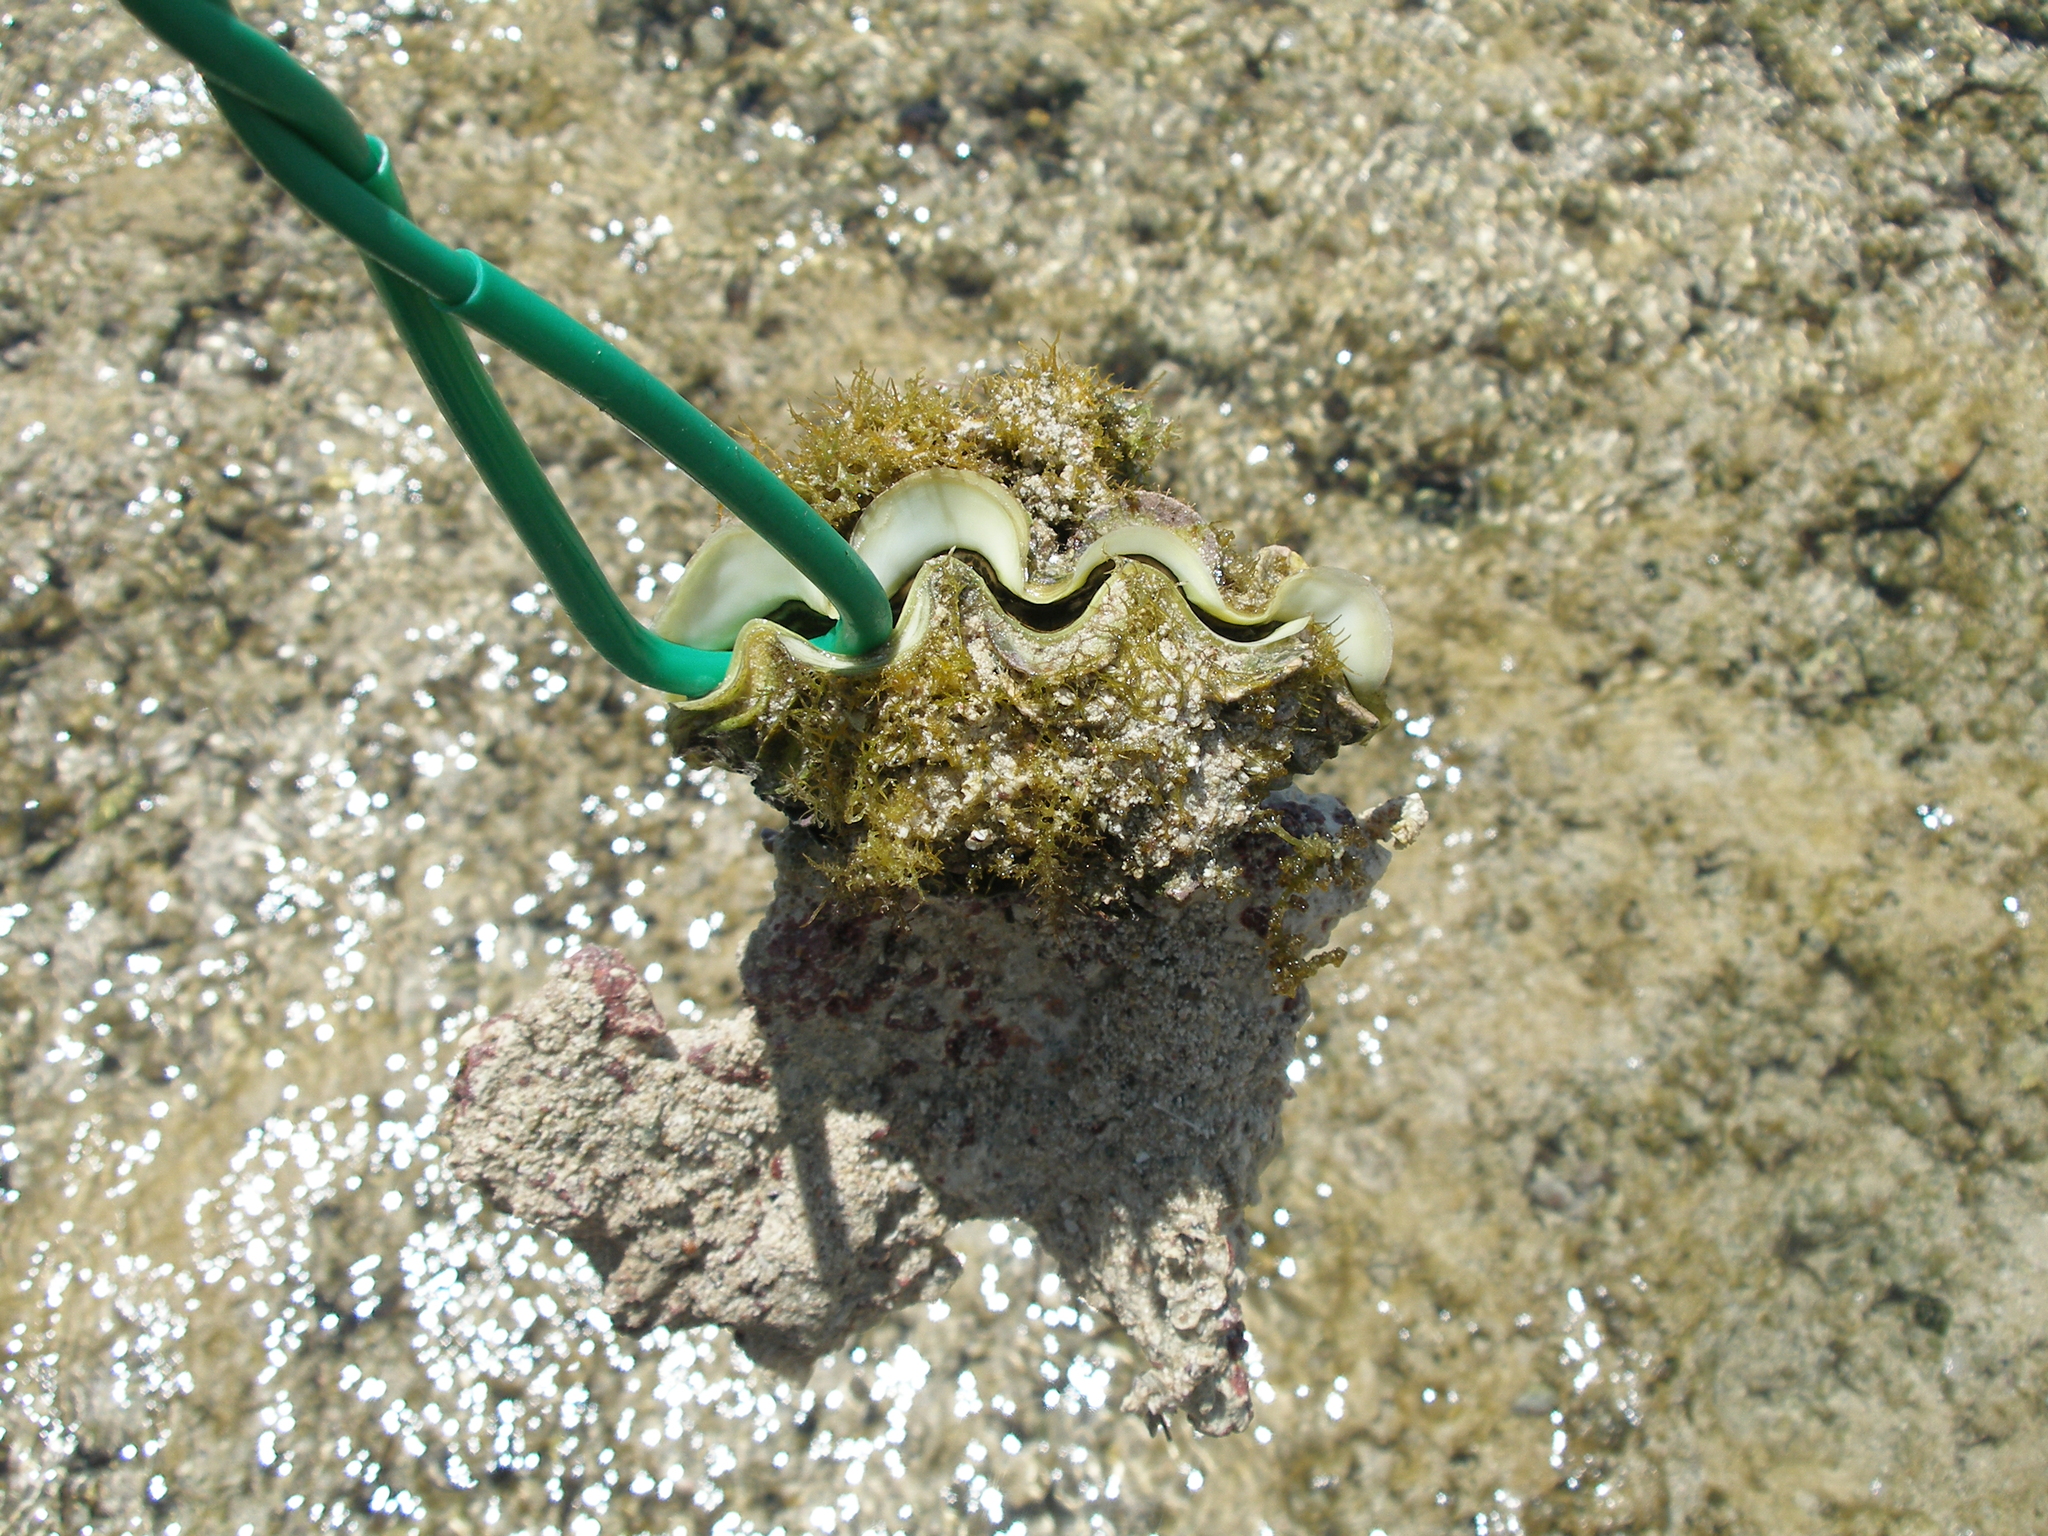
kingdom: Animalia
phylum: Mollusca
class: Bivalvia
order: Cardiida
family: Cardiidae
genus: Tridacna
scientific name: Tridacna squamosa
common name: Fluted clam
